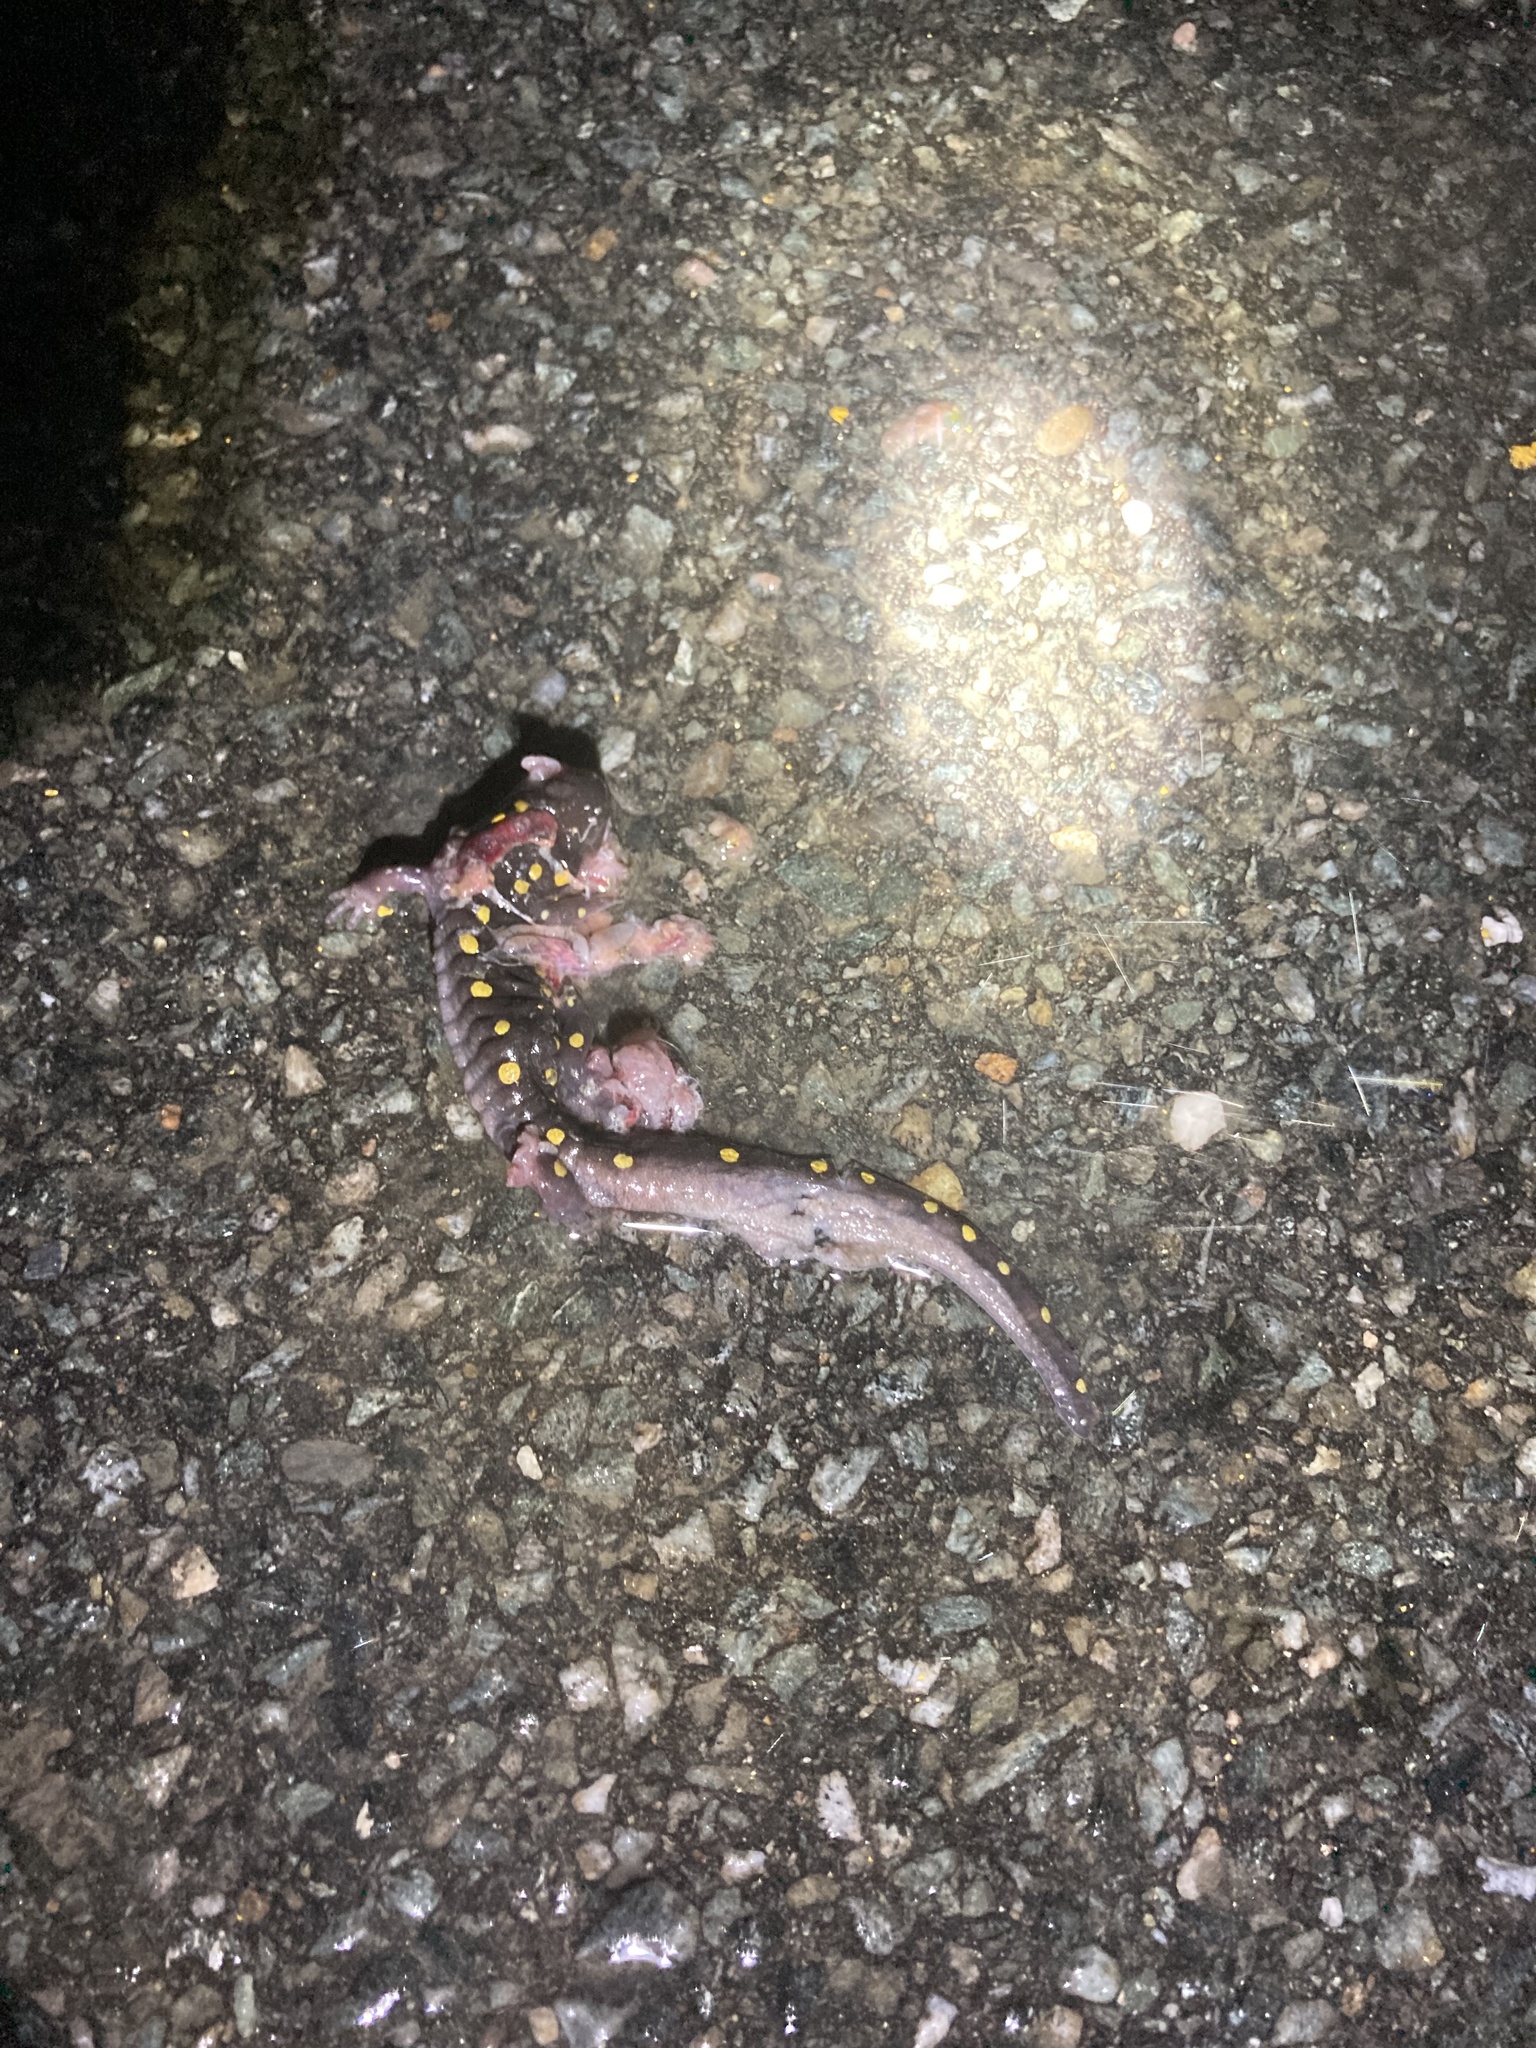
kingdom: Animalia
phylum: Chordata
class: Amphibia
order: Caudata
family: Ambystomatidae
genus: Ambystoma
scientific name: Ambystoma maculatum
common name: Spotted salamander
